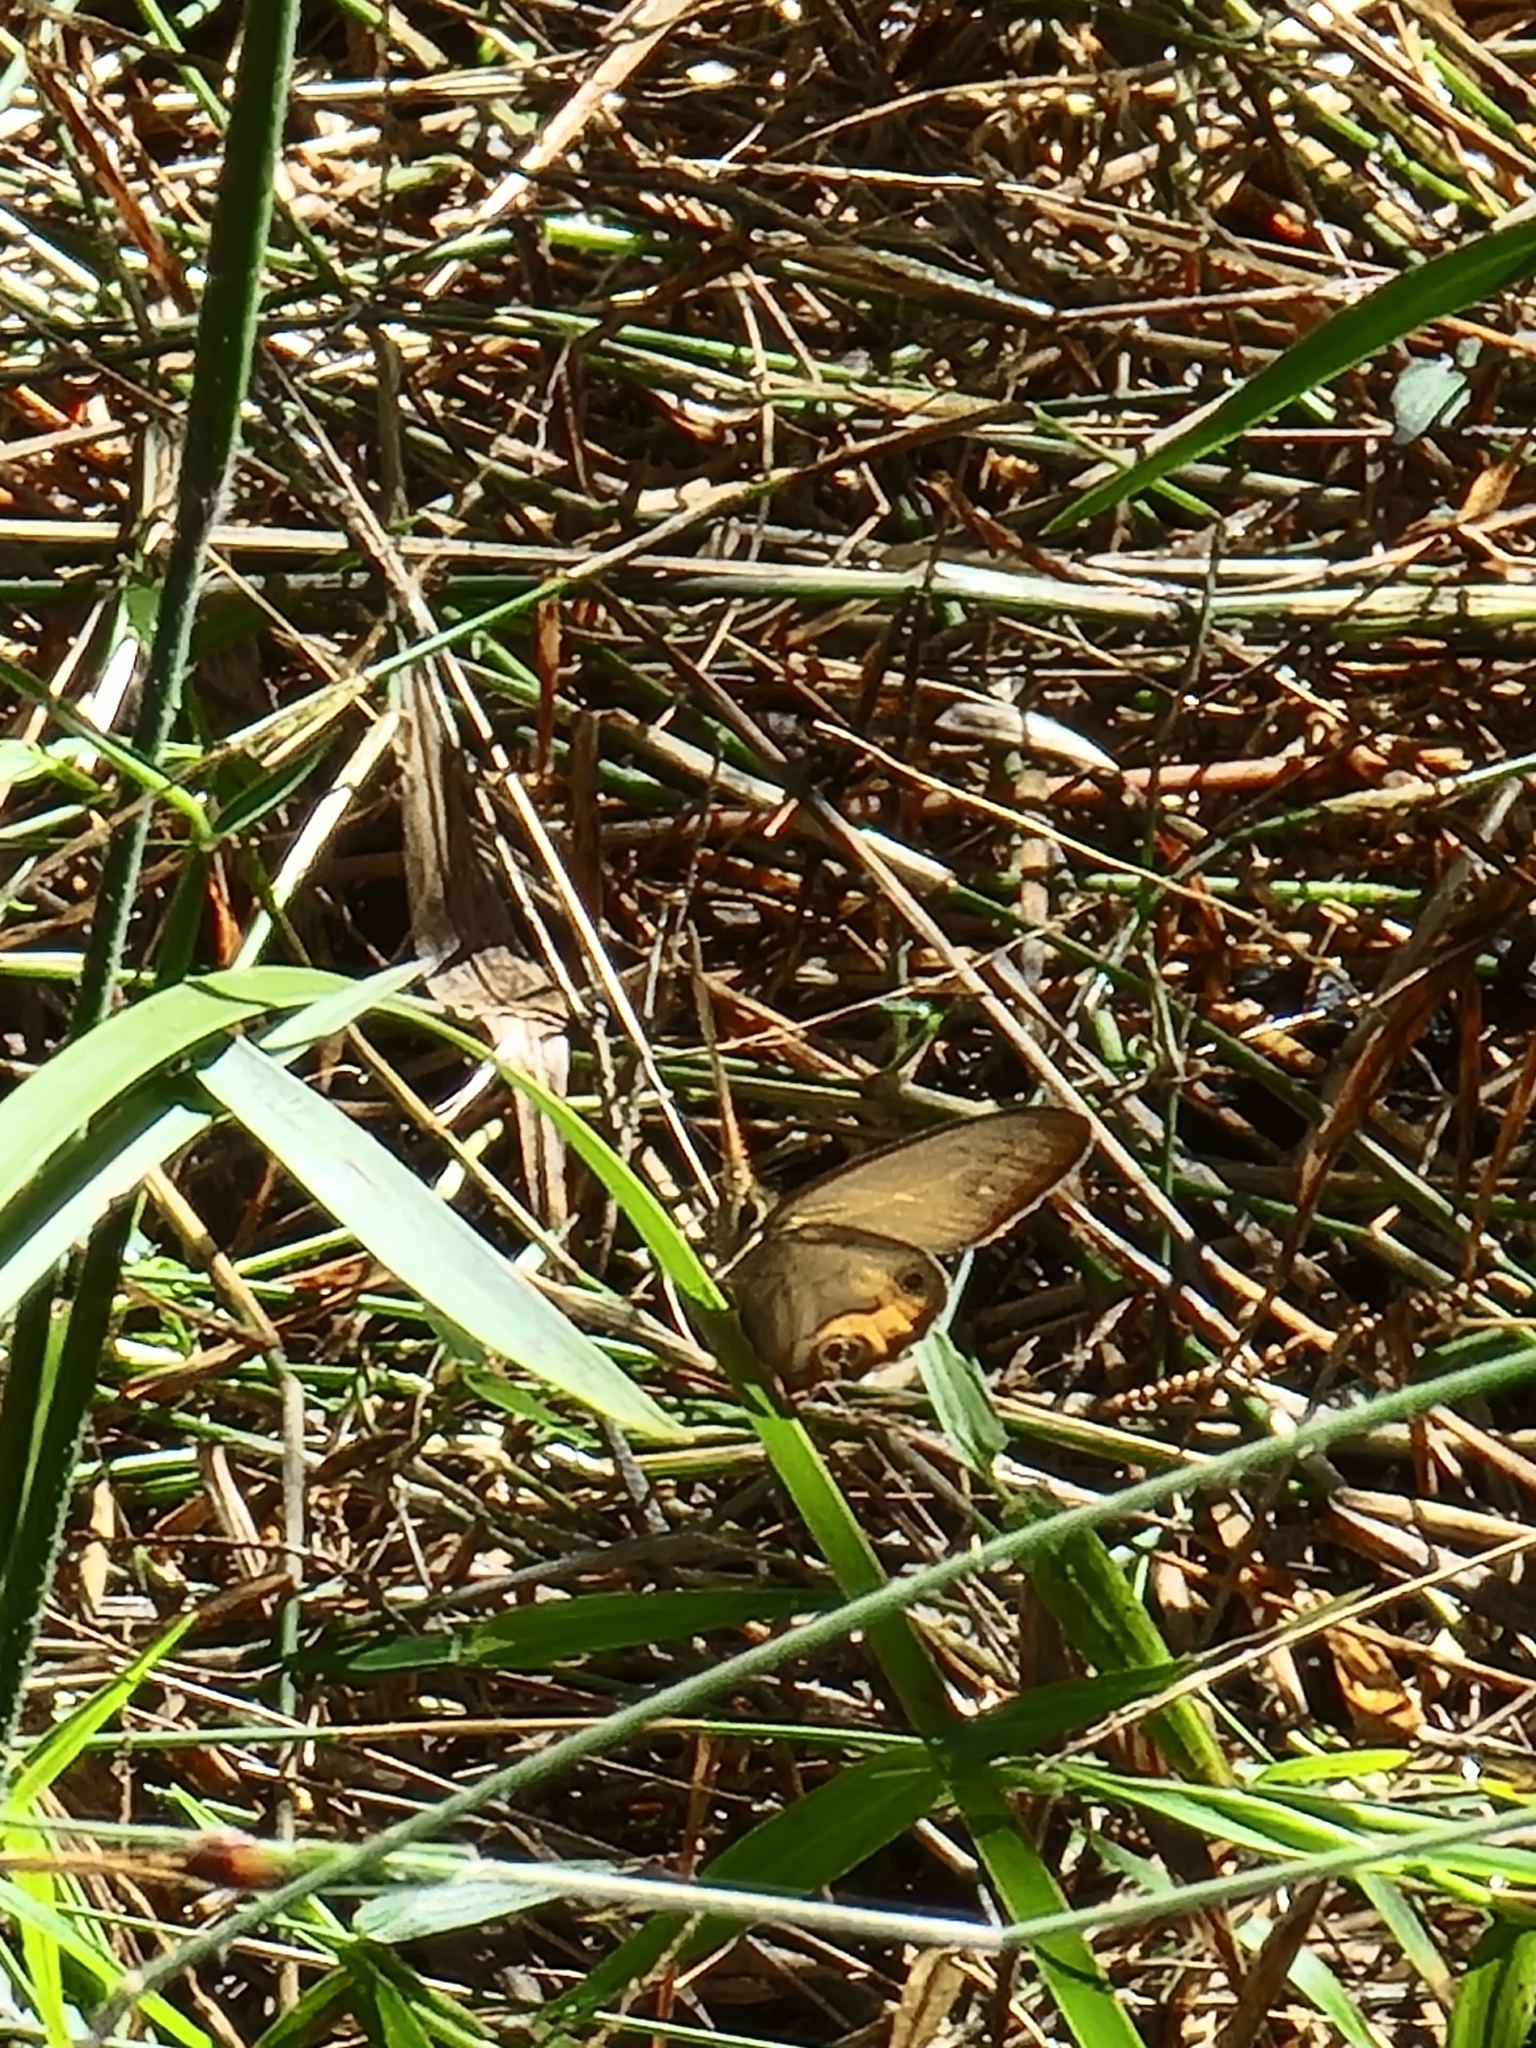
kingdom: Animalia
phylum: Arthropoda
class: Insecta
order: Lepidoptera
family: Nymphalidae
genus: Hypocysta
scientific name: Hypocysta metirius
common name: Brown ringlet
